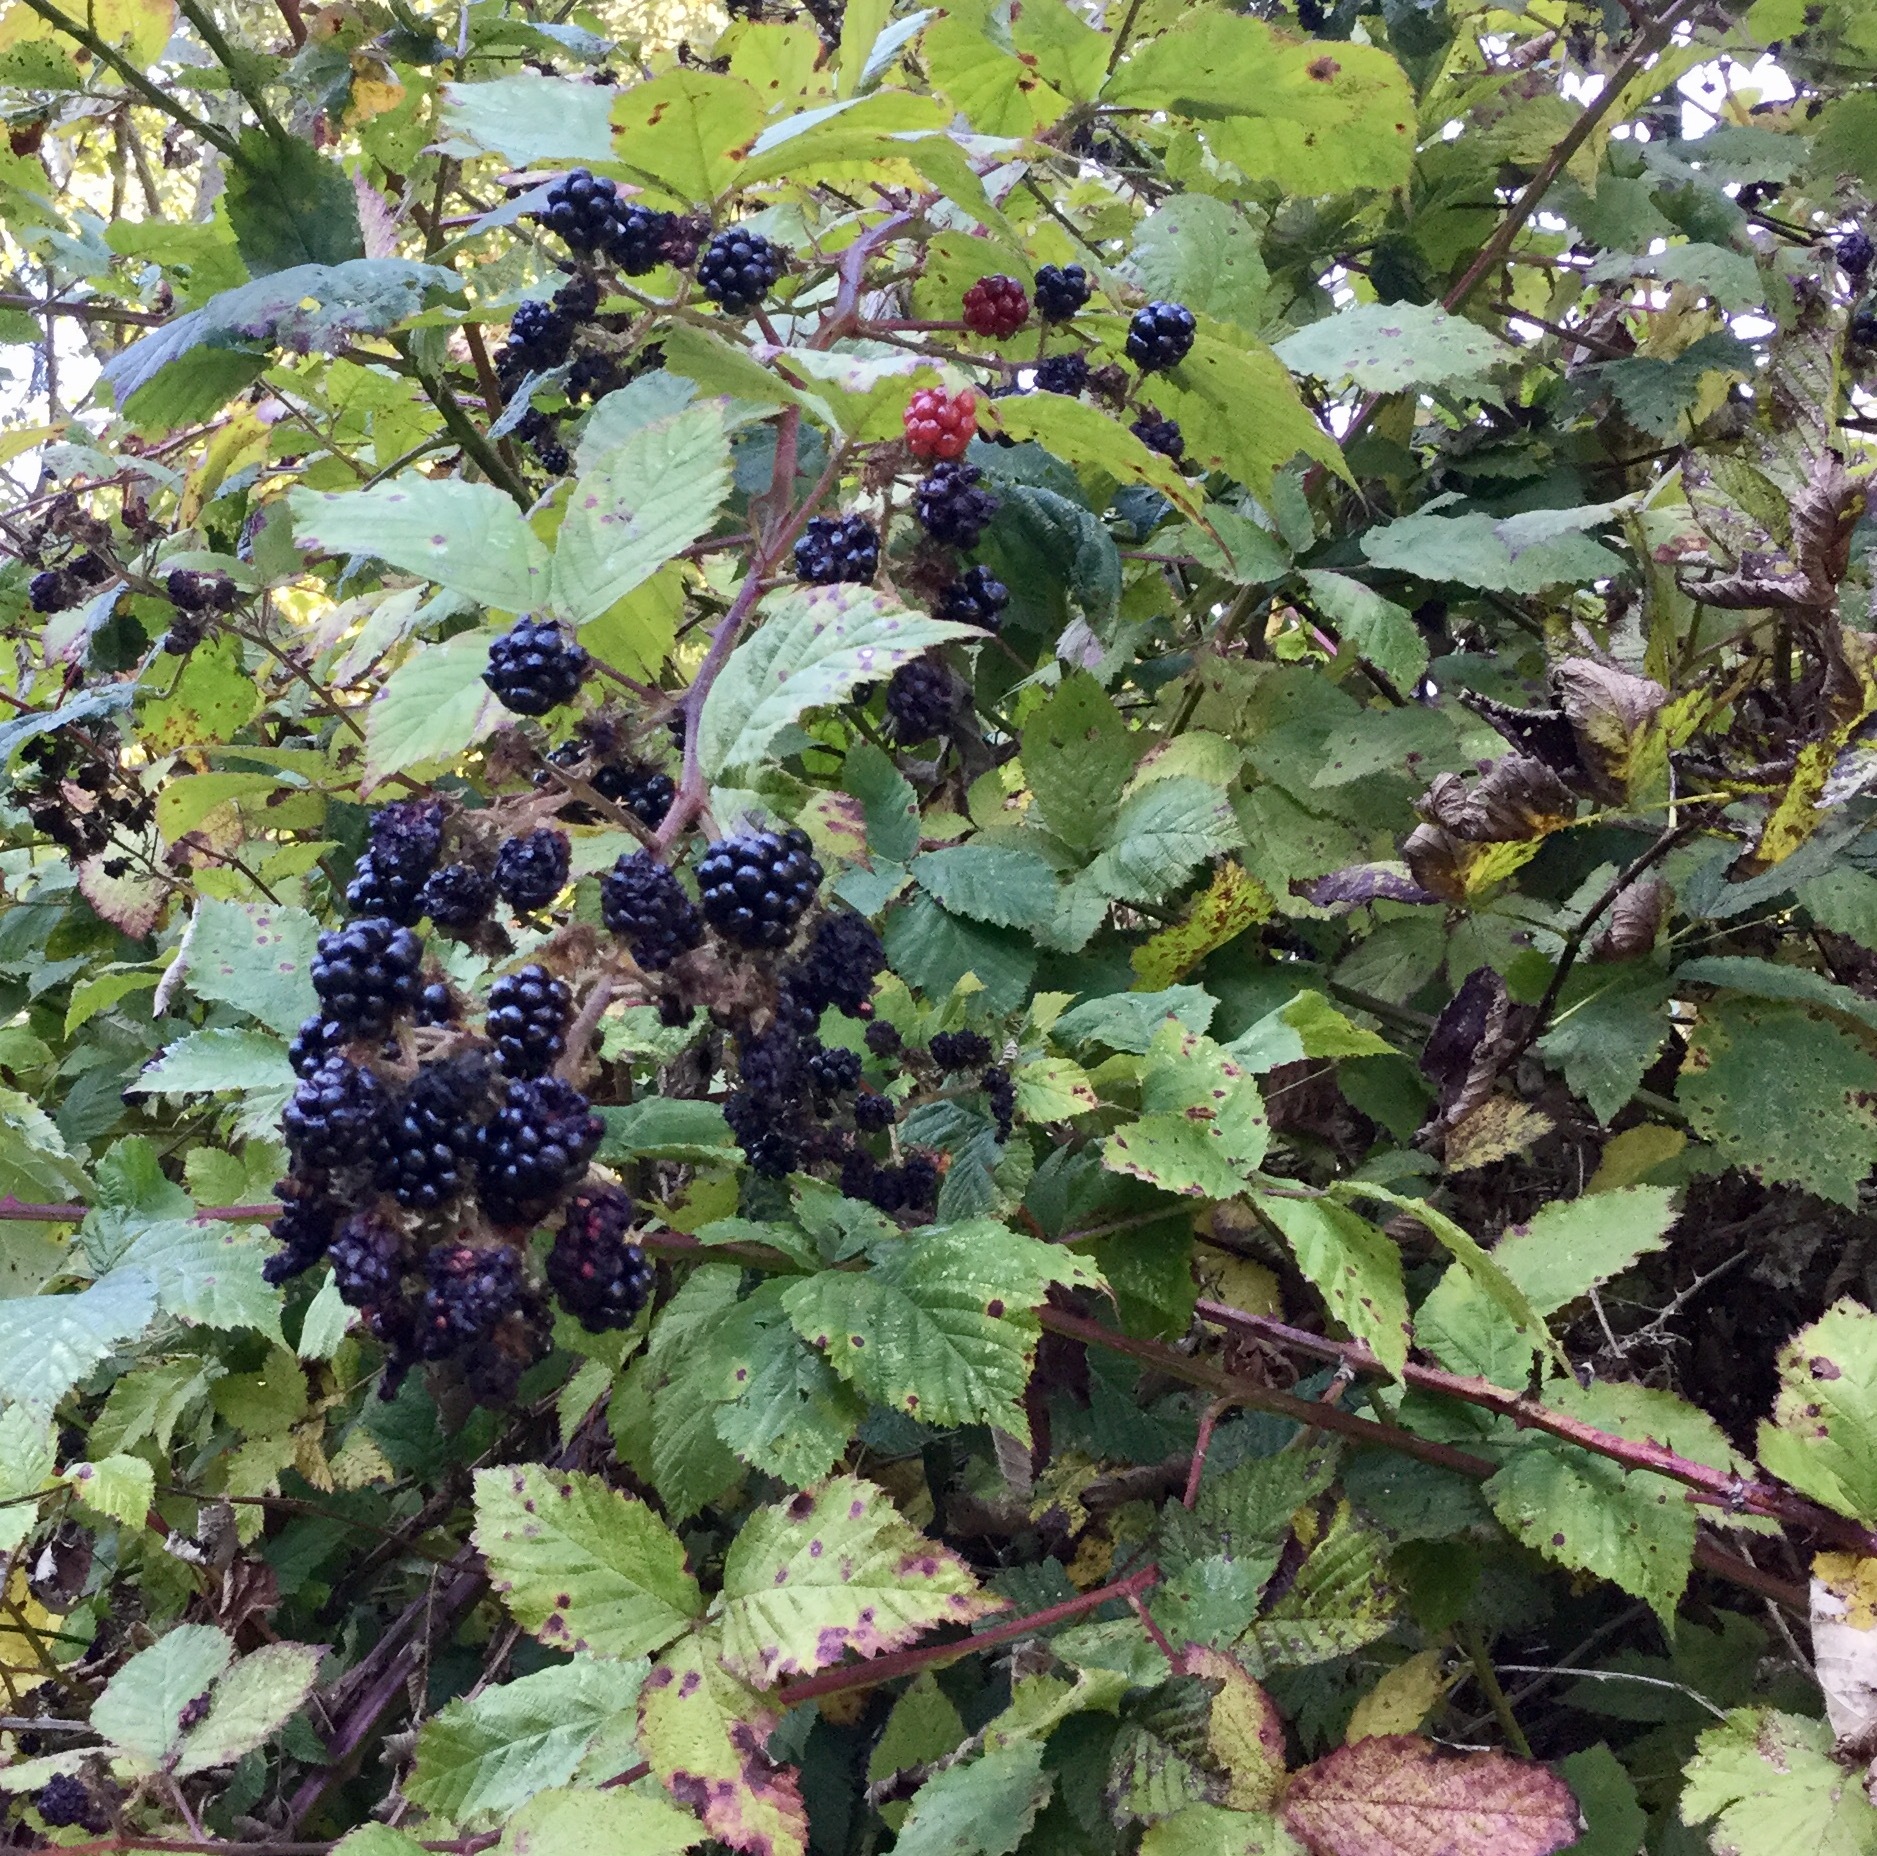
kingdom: Plantae
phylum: Tracheophyta
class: Magnoliopsida
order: Rosales
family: Rosaceae
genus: Rubus
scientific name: Rubus bifrons
